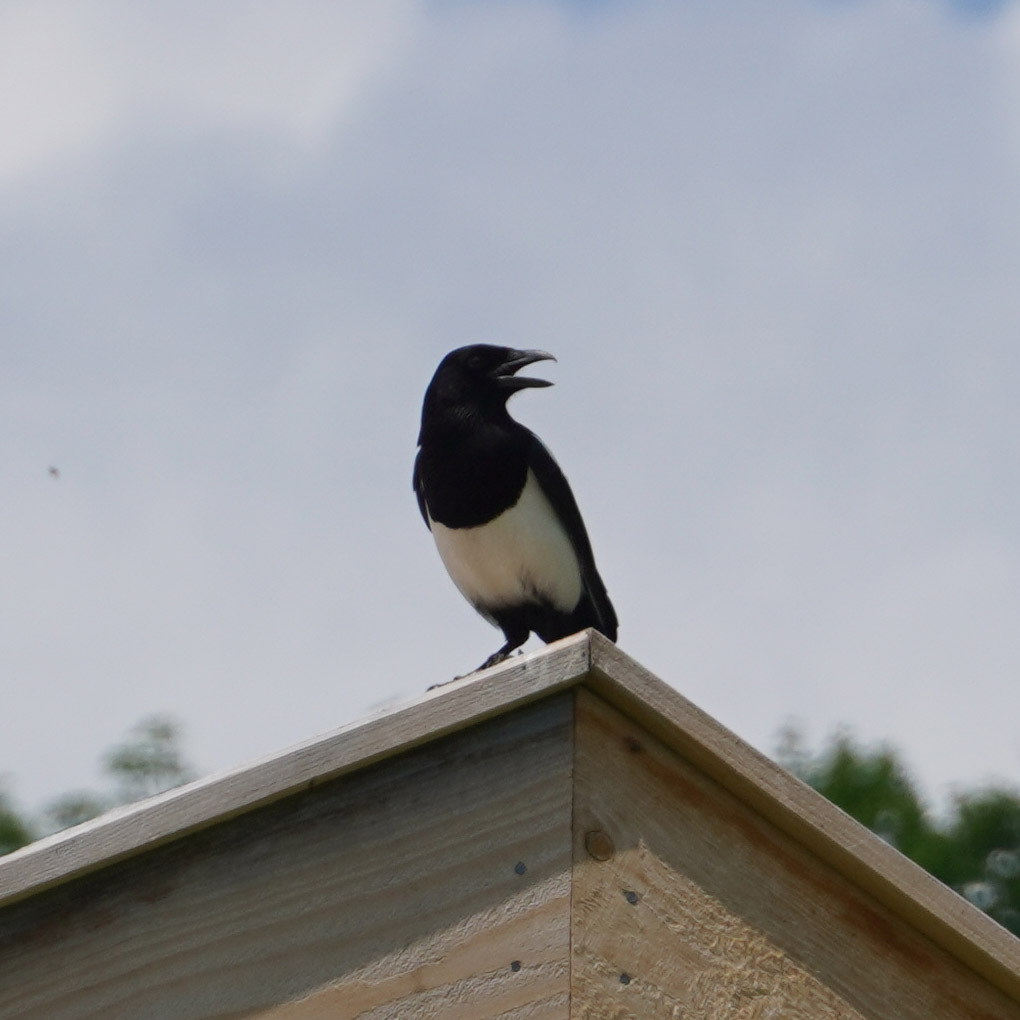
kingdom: Animalia
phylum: Chordata
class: Aves
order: Passeriformes
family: Corvidae
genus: Pica
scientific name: Pica pica
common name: Eurasian magpie
